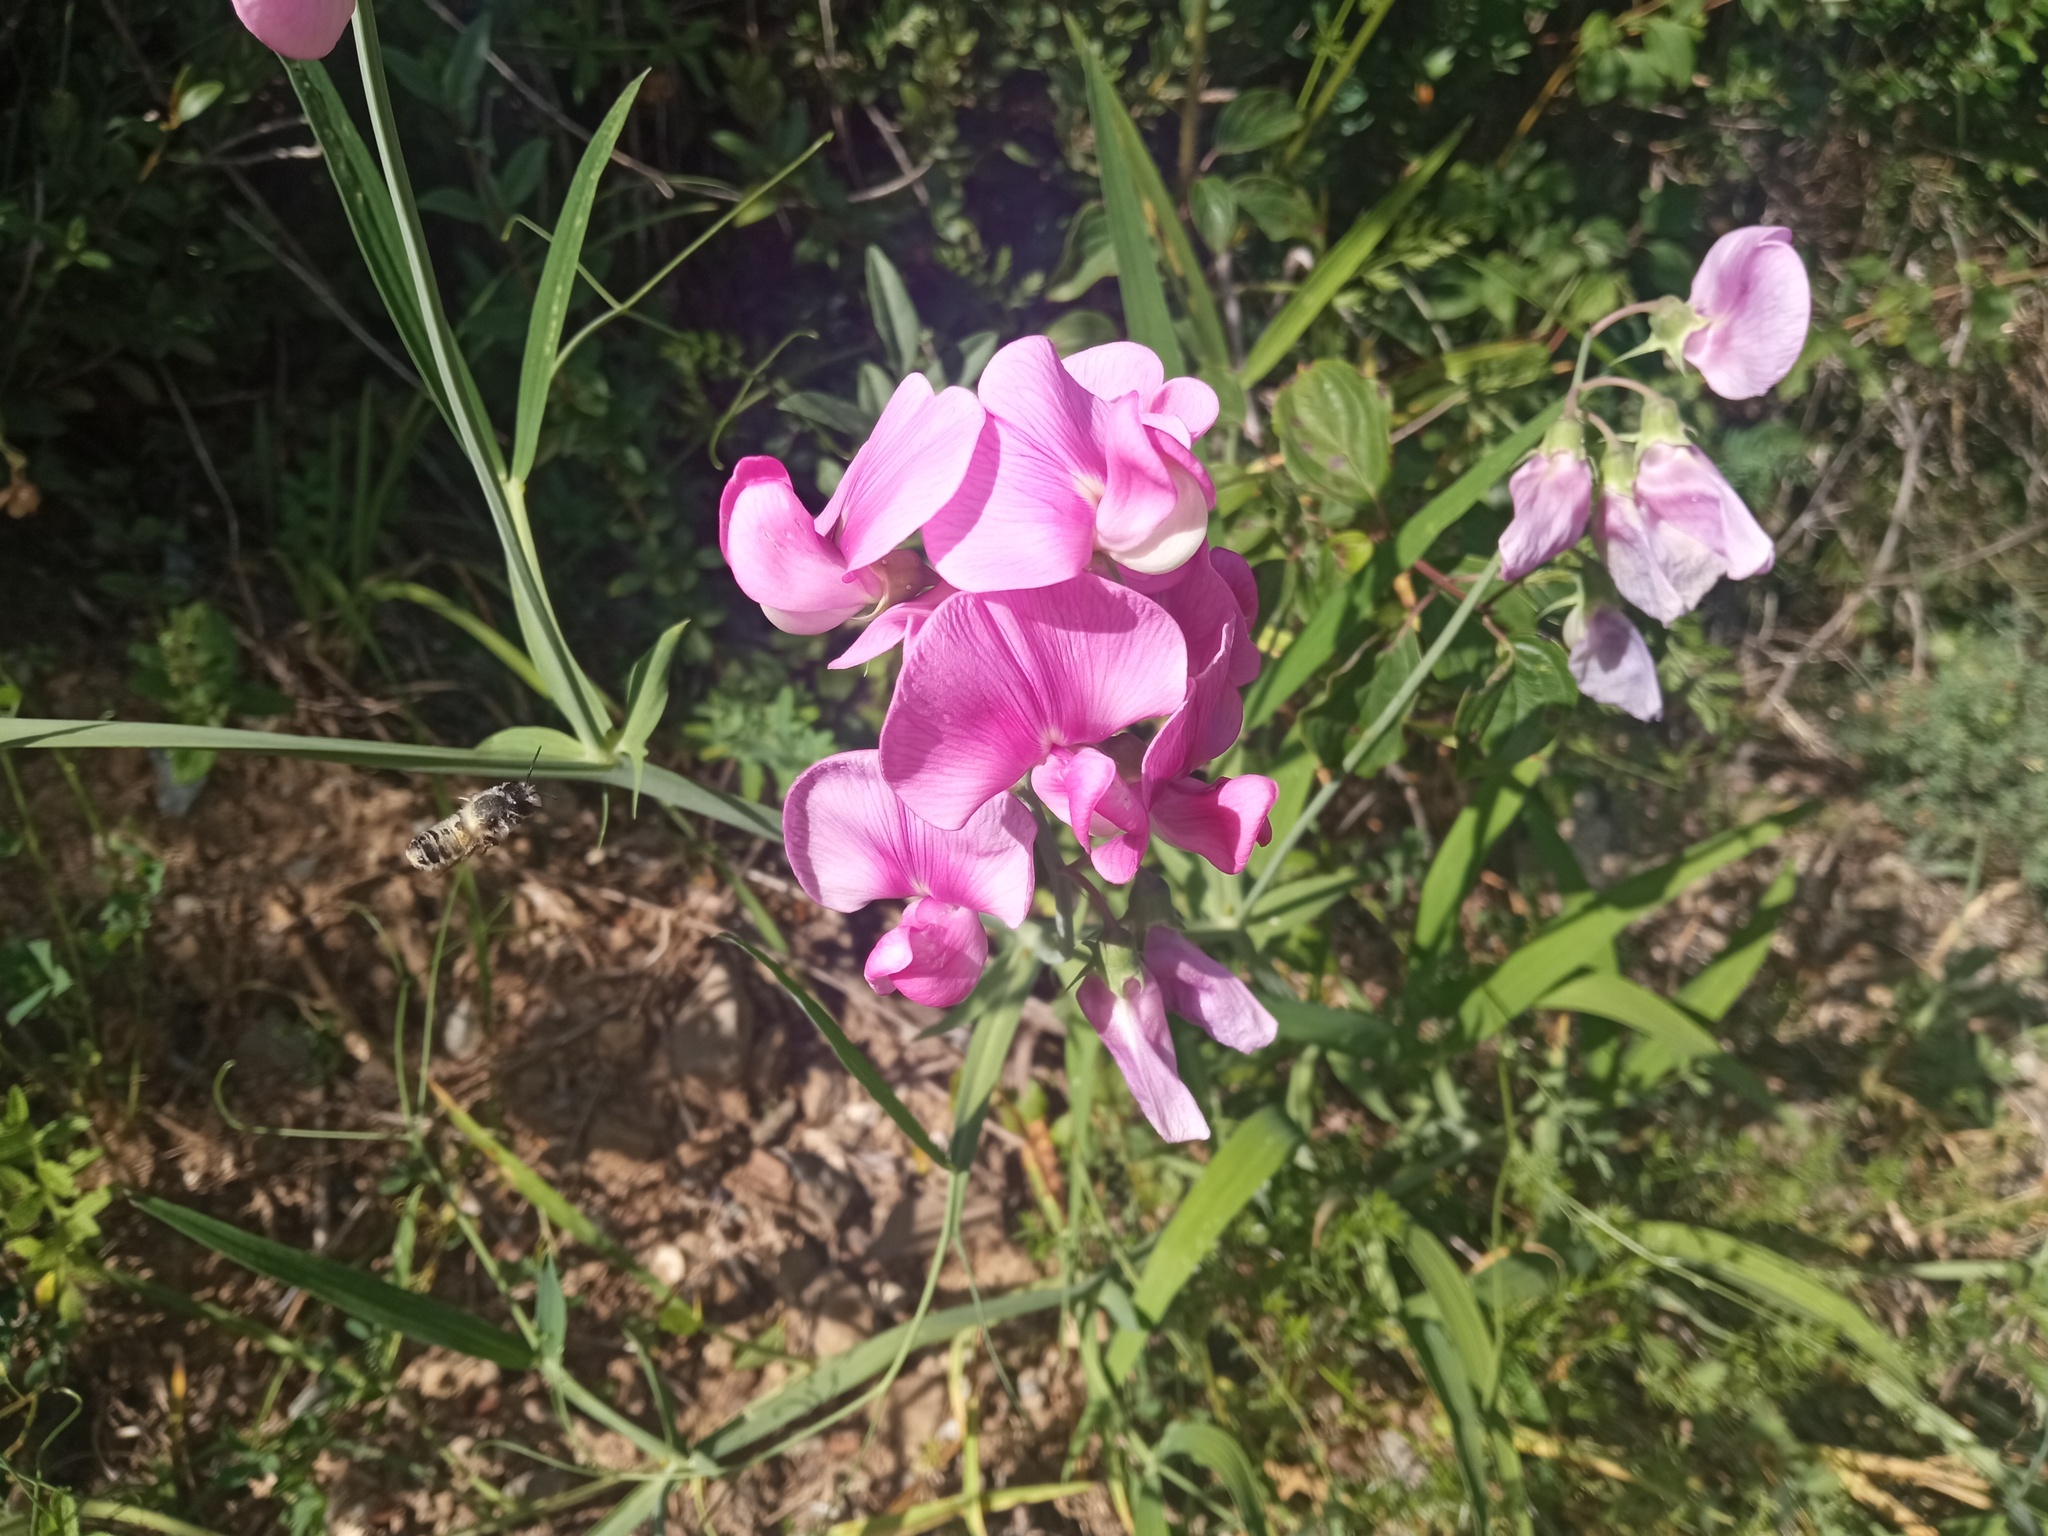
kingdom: Plantae
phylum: Tracheophyta
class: Magnoliopsida
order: Fabales
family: Fabaceae
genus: Lathyrus
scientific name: Lathyrus latifolius
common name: Perennial pea
